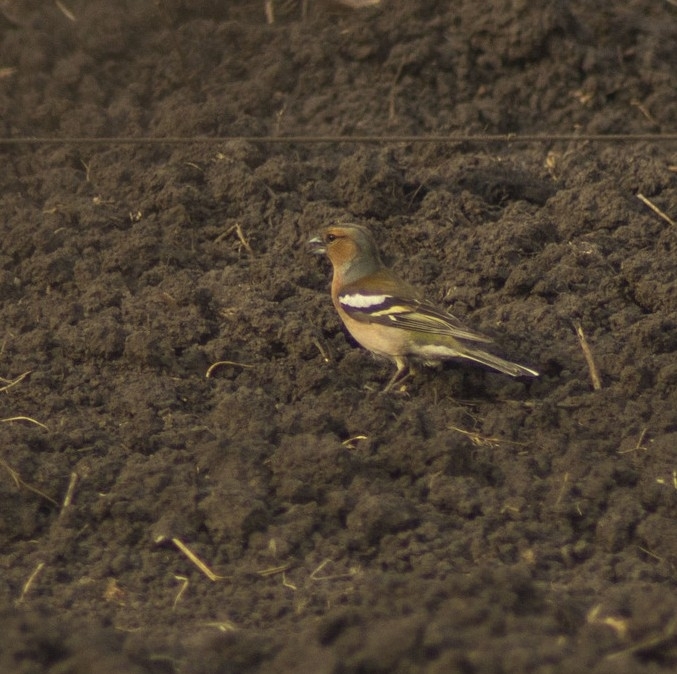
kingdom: Animalia
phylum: Chordata
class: Aves
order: Passeriformes
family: Fringillidae
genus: Fringilla
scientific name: Fringilla coelebs
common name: Common chaffinch
